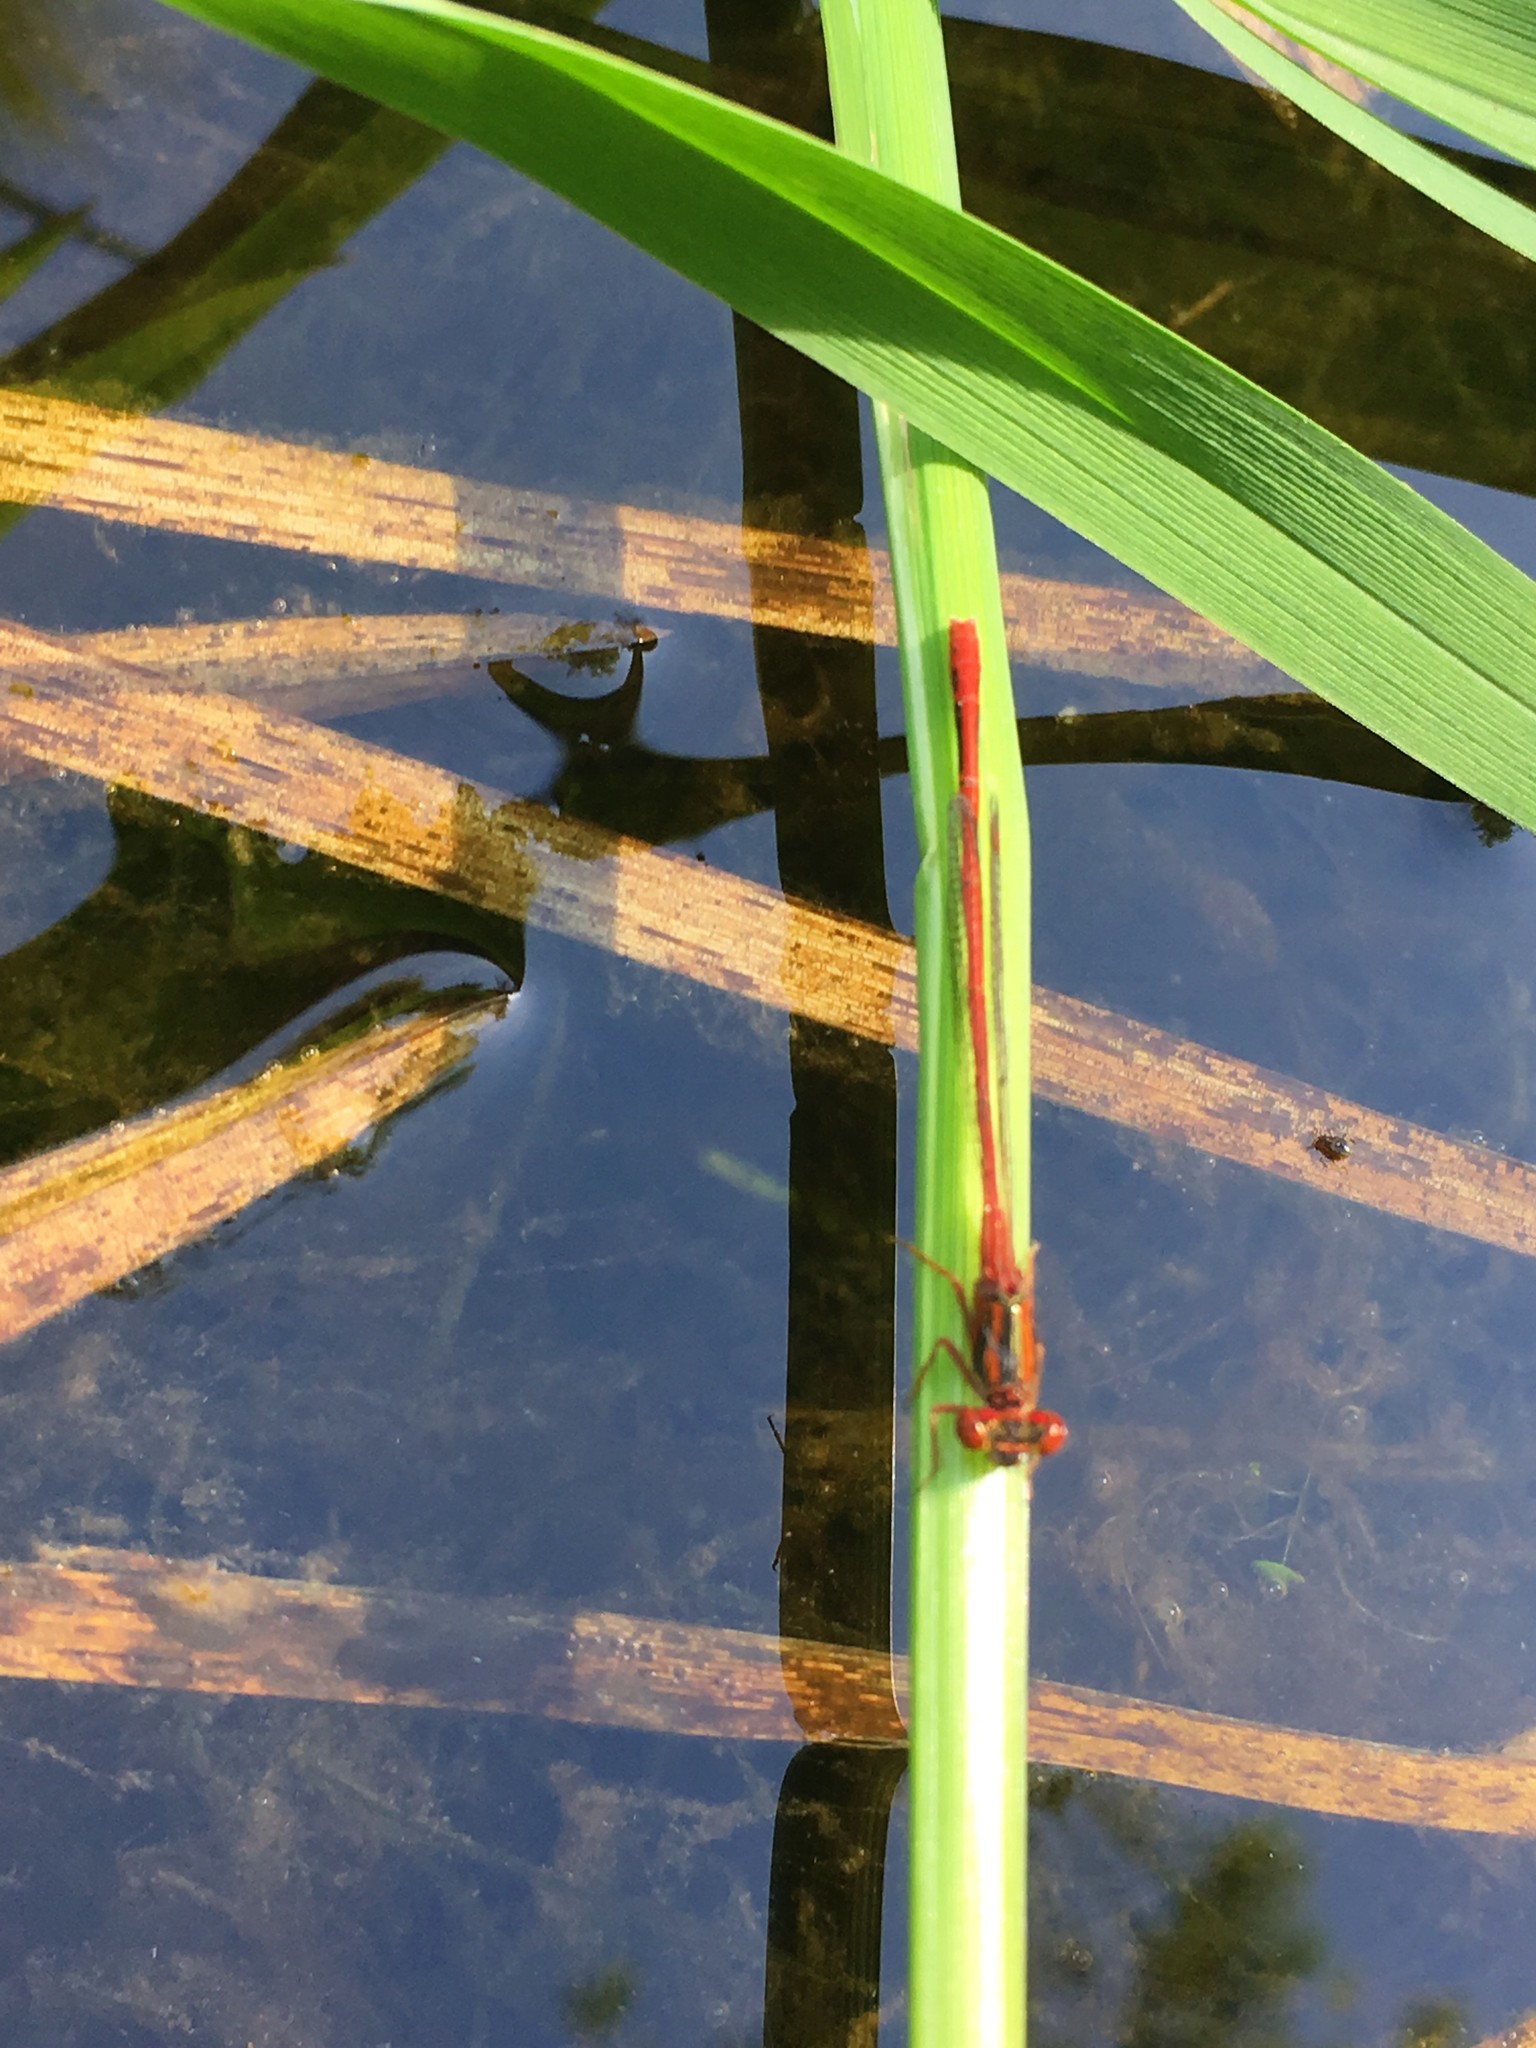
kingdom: Animalia
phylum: Arthropoda
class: Insecta
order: Odonata
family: Coenagrionidae
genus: Xanthocnemis
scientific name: Xanthocnemis zealandica
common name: Common redcoat damselfly
